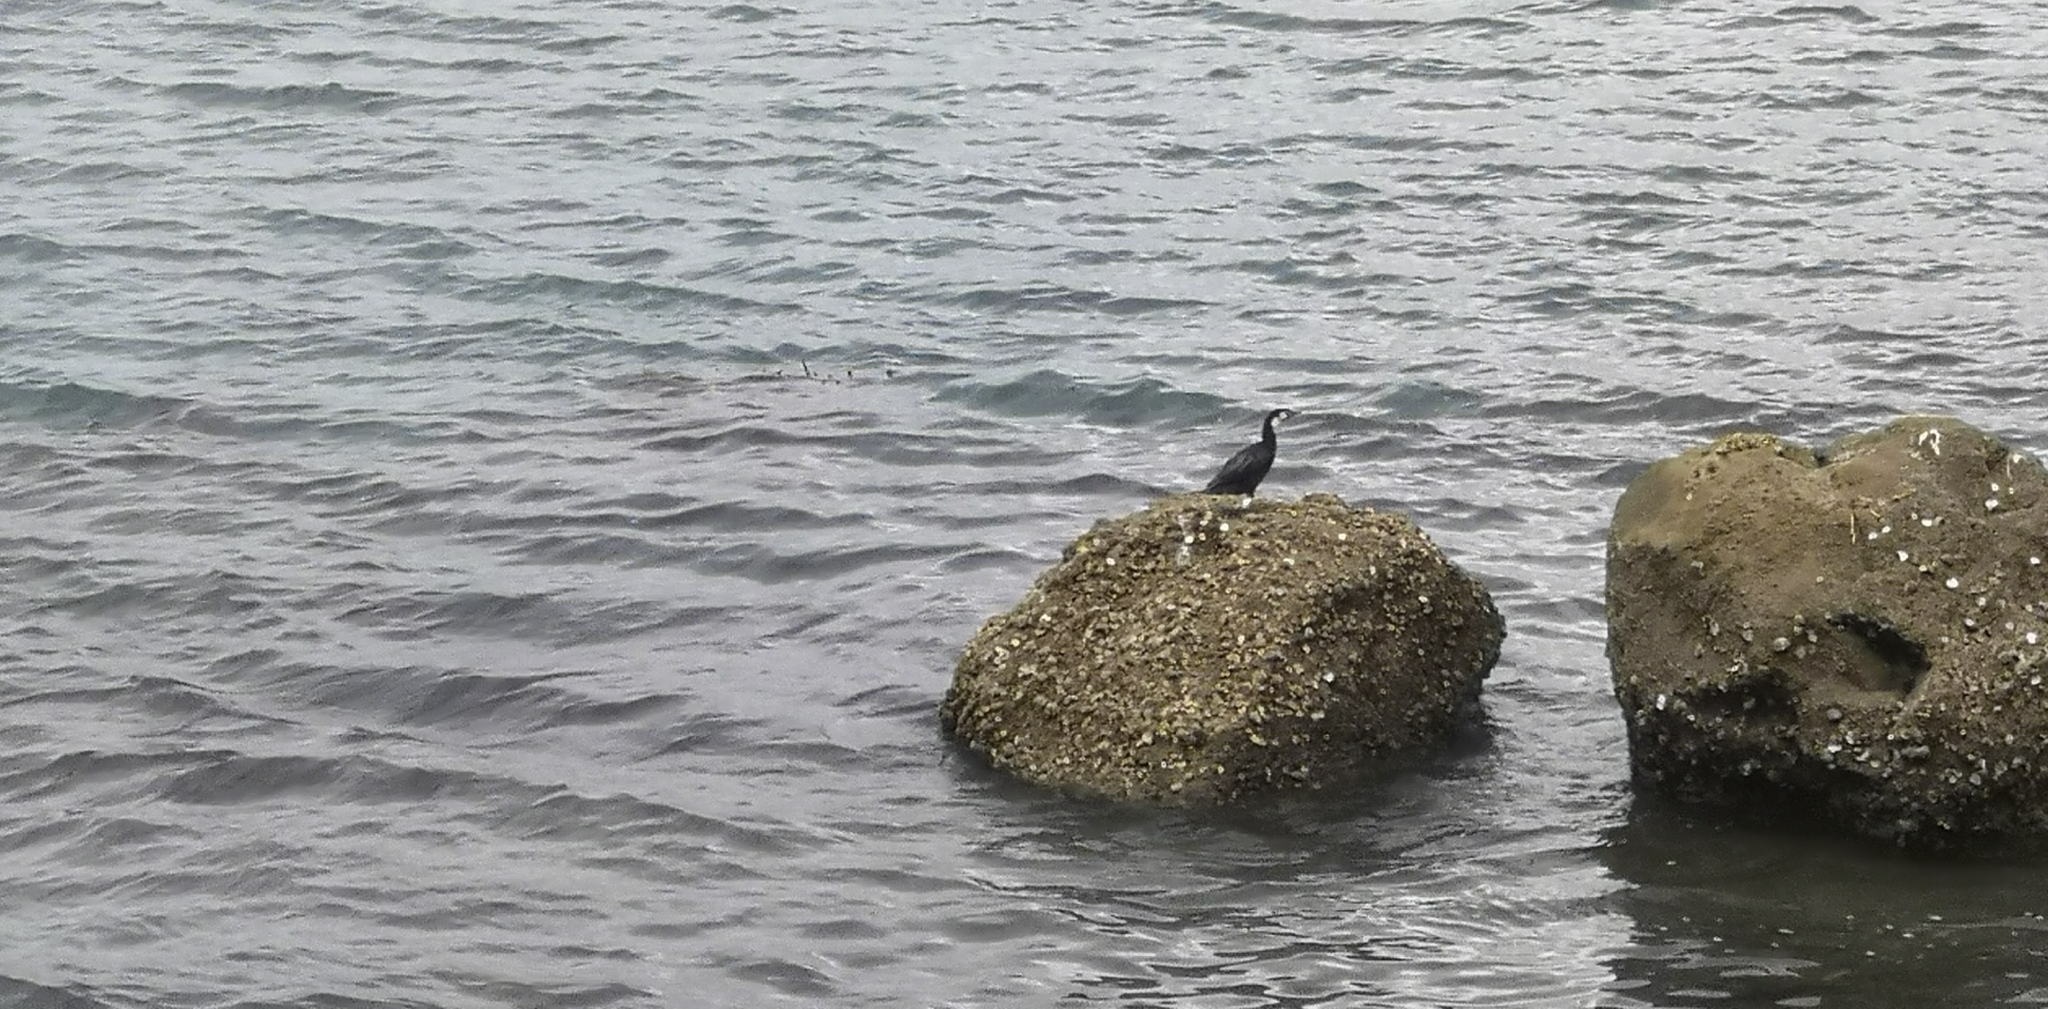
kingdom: Animalia
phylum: Chordata
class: Aves
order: Suliformes
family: Phalacrocoracidae
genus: Microcarbo
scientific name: Microcarbo melanoleucos
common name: Little pied cormorant
